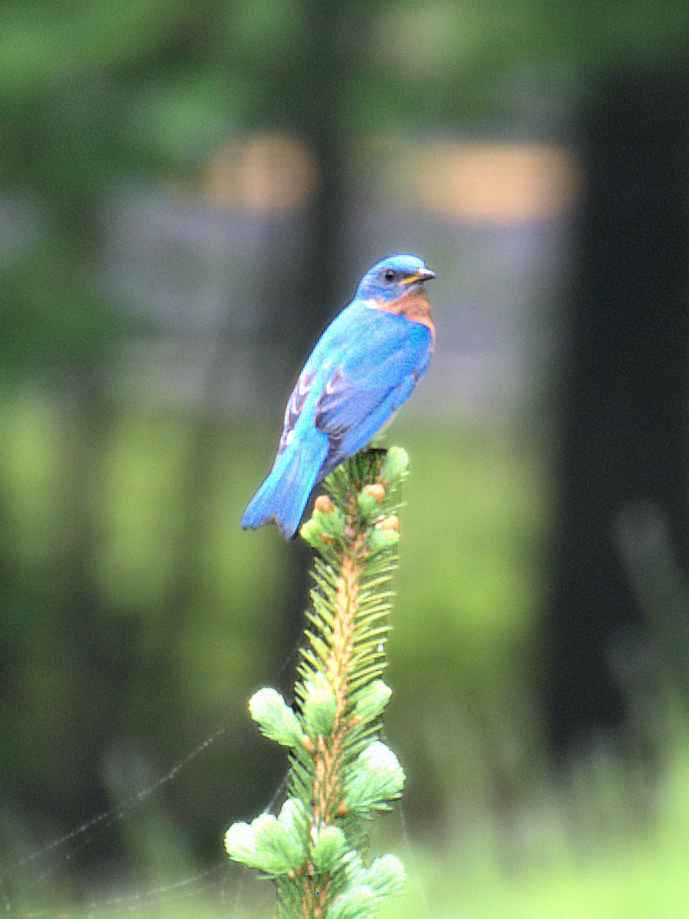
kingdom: Animalia
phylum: Chordata
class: Aves
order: Passeriformes
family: Turdidae
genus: Sialia
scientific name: Sialia sialis
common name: Eastern bluebird
